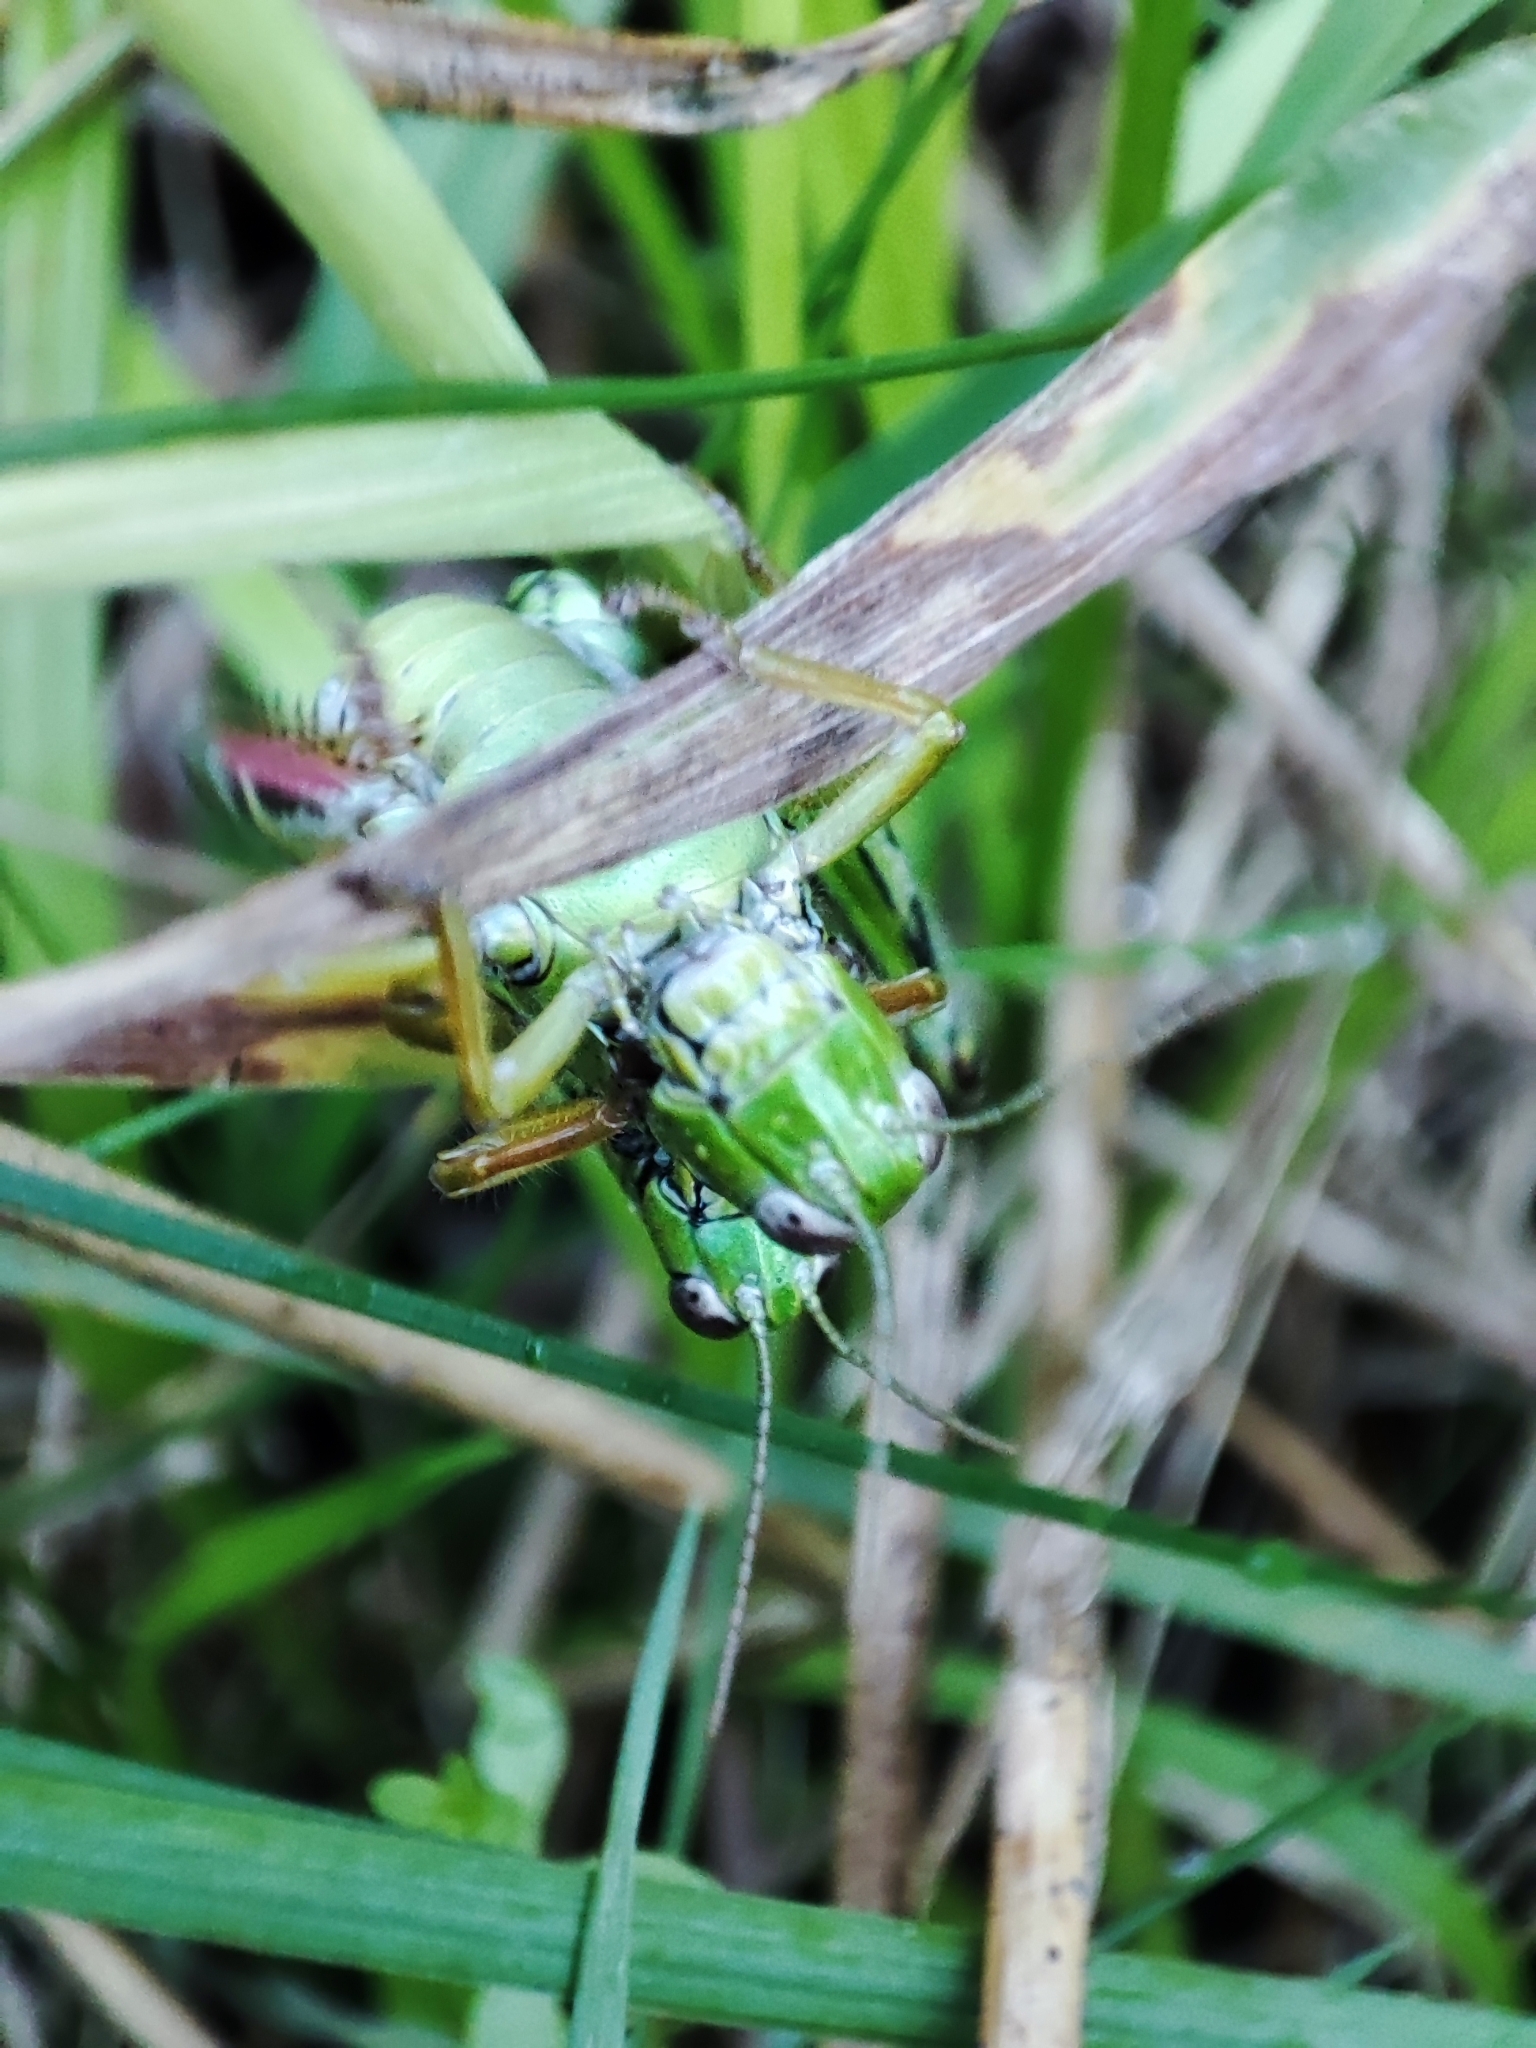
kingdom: Animalia
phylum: Arthropoda
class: Insecta
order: Orthoptera
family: Acrididae
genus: Miramella
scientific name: Miramella alpina
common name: Green mountain grasshopper
